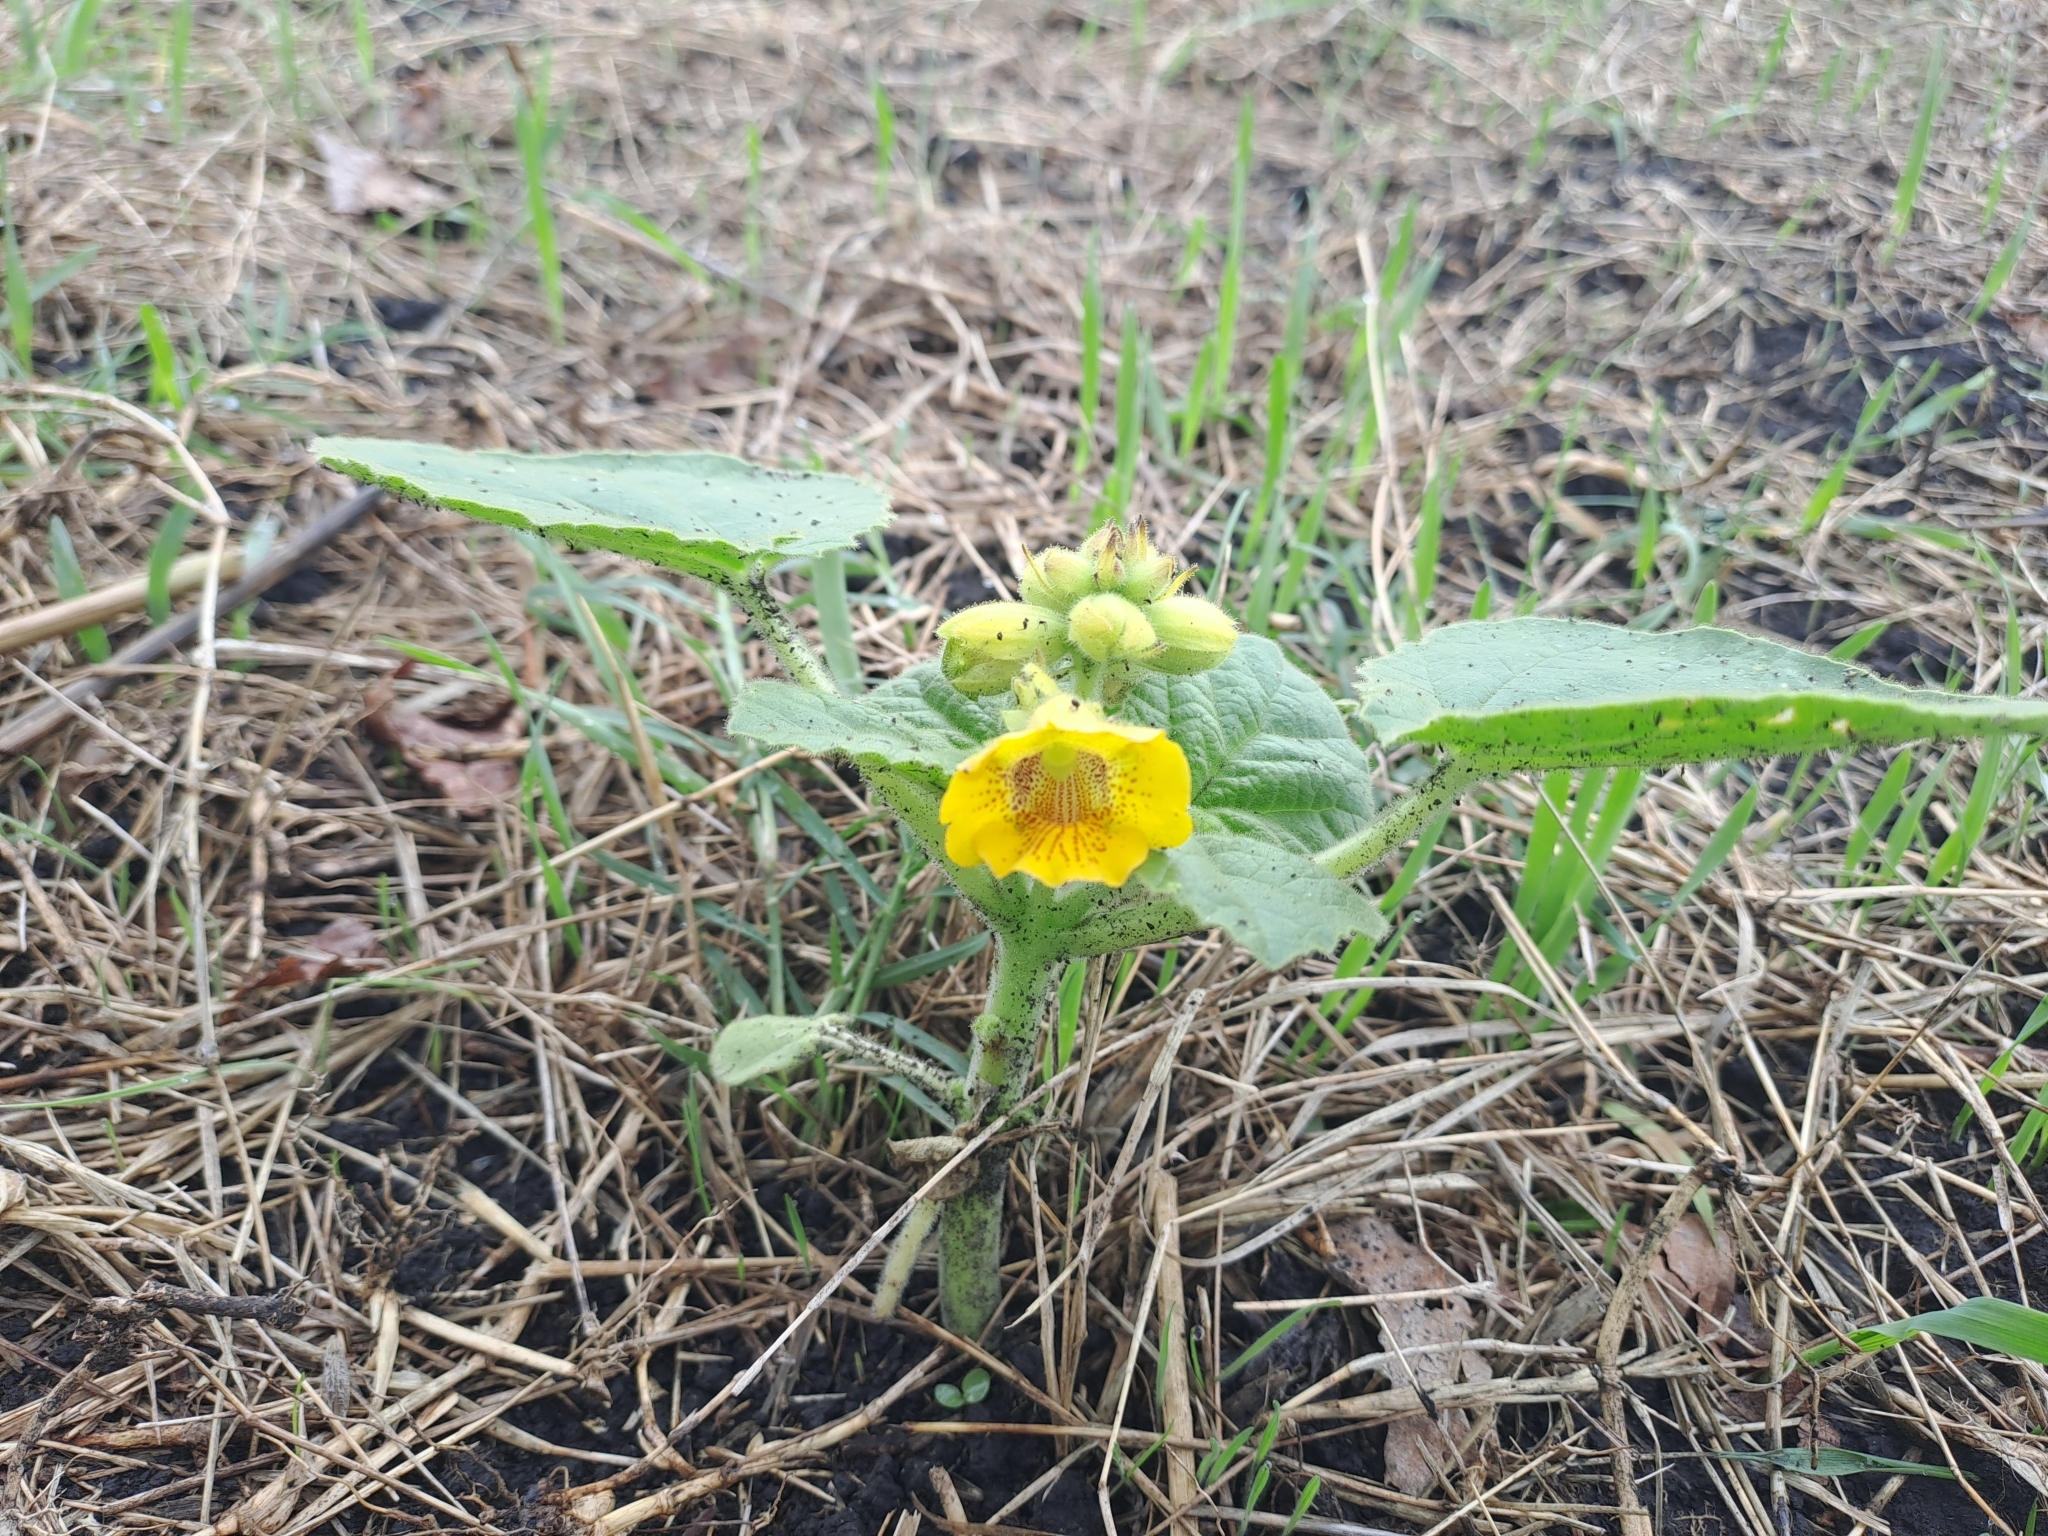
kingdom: Plantae
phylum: Tracheophyta
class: Magnoliopsida
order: Lamiales
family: Martyniaceae
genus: Ibicella
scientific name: Ibicella lutea
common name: Yellow unicorn-plant
